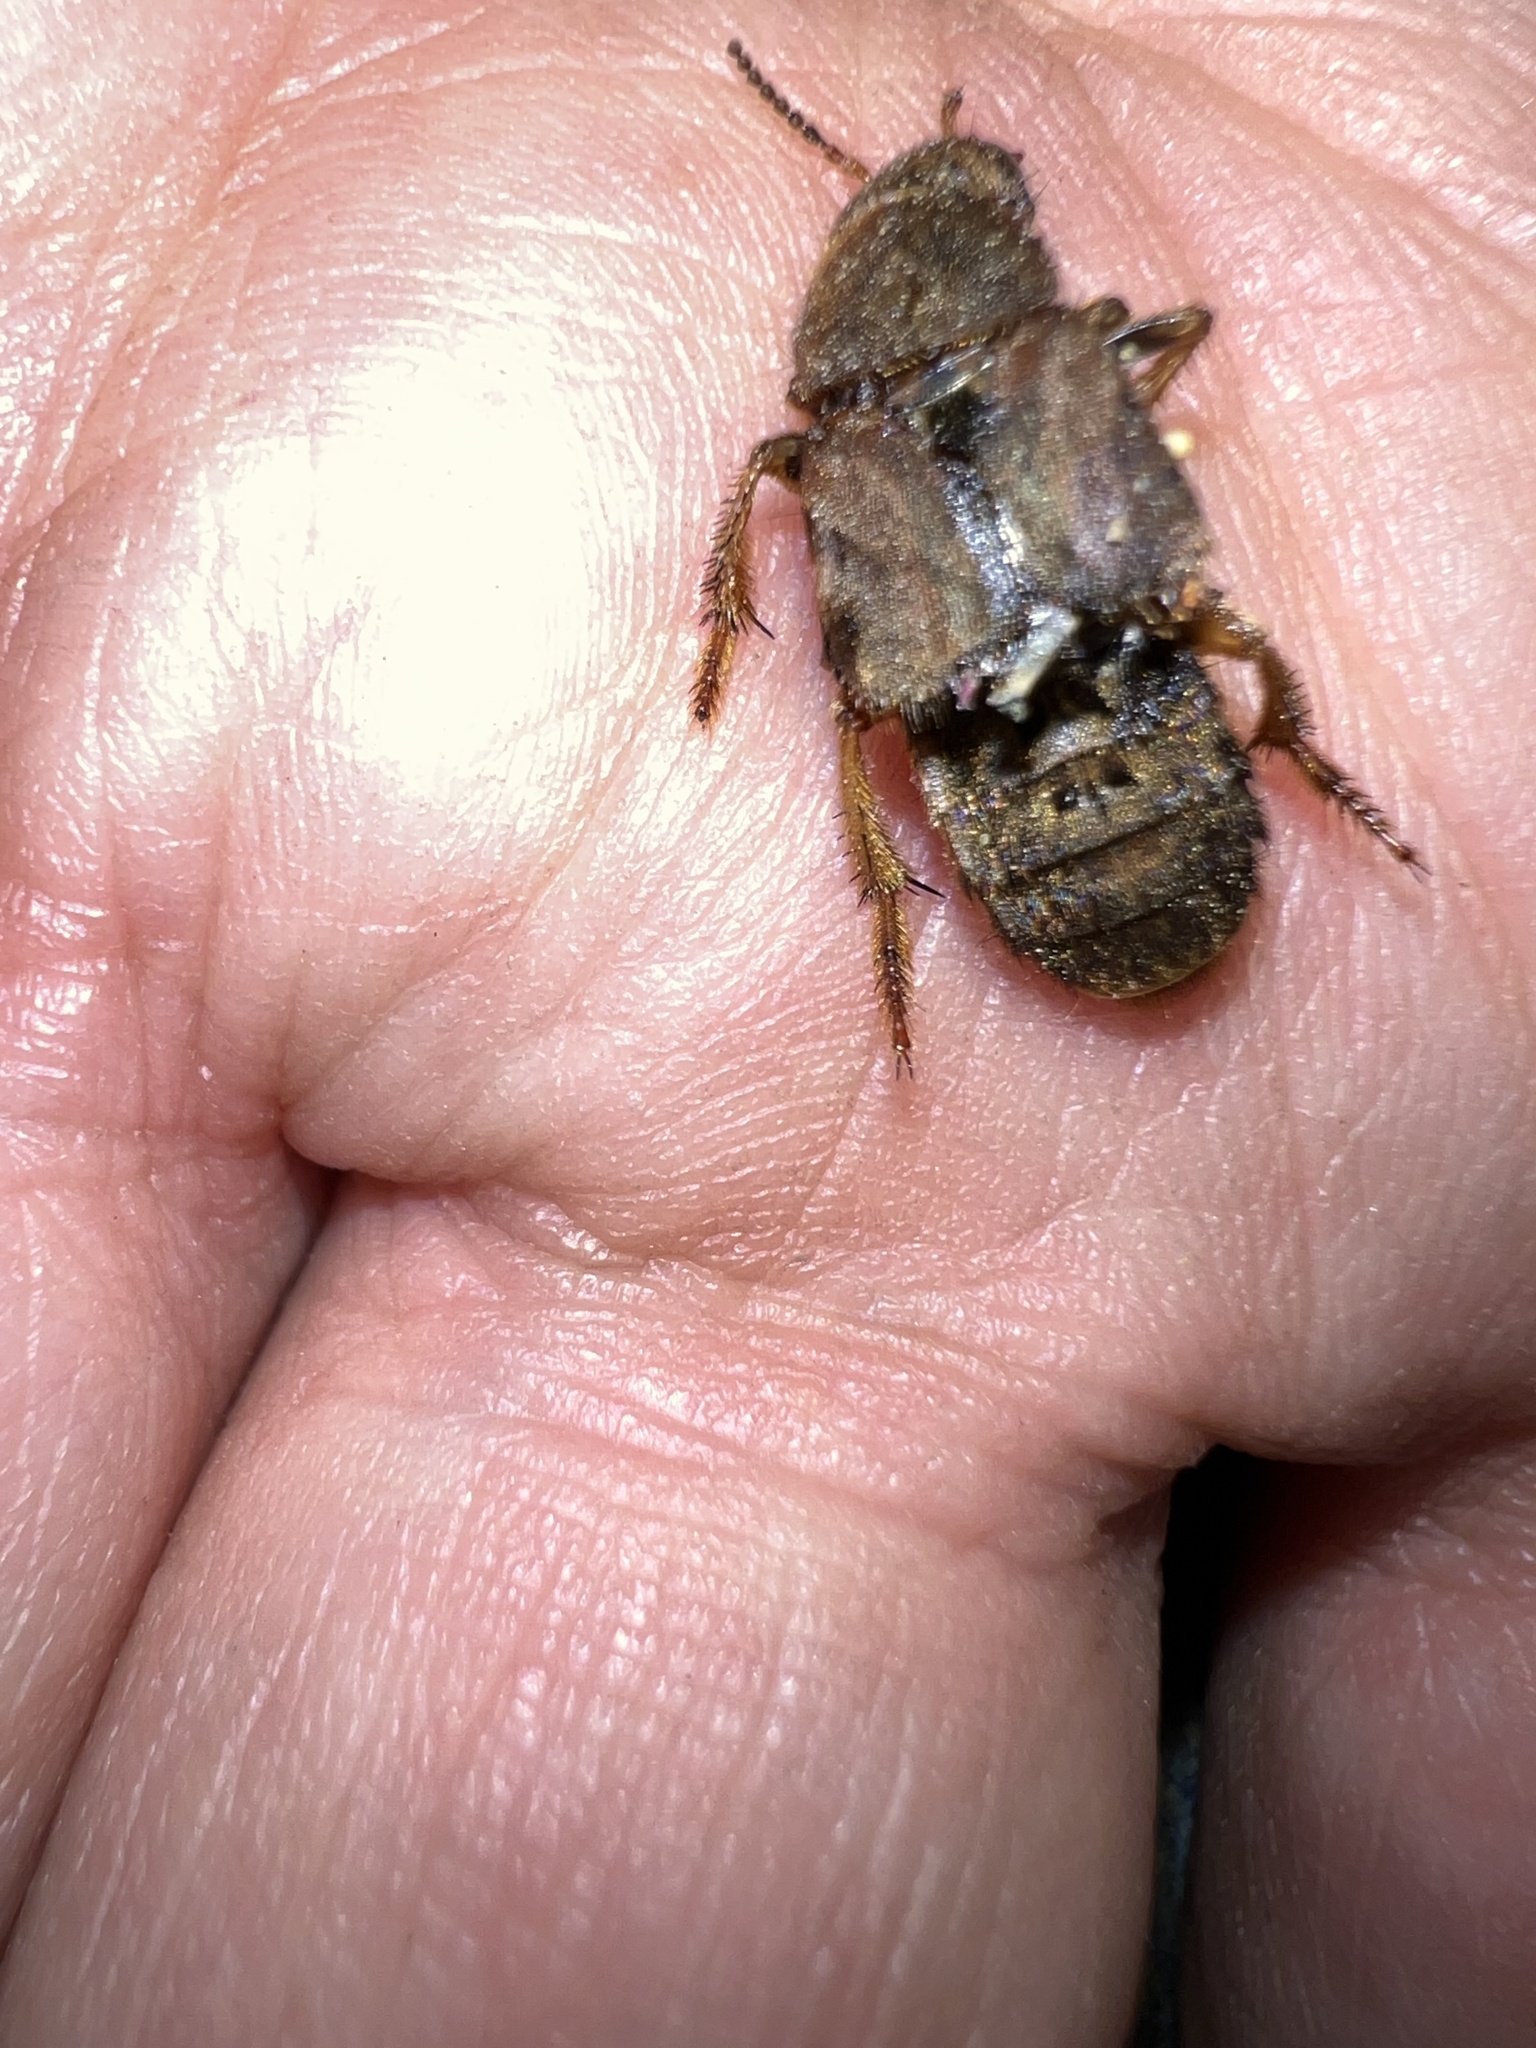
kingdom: Animalia
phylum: Arthropoda
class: Insecta
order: Coleoptera
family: Staphylinidae
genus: Platydracus
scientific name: Platydracus maculosus
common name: Brown rove beetle
